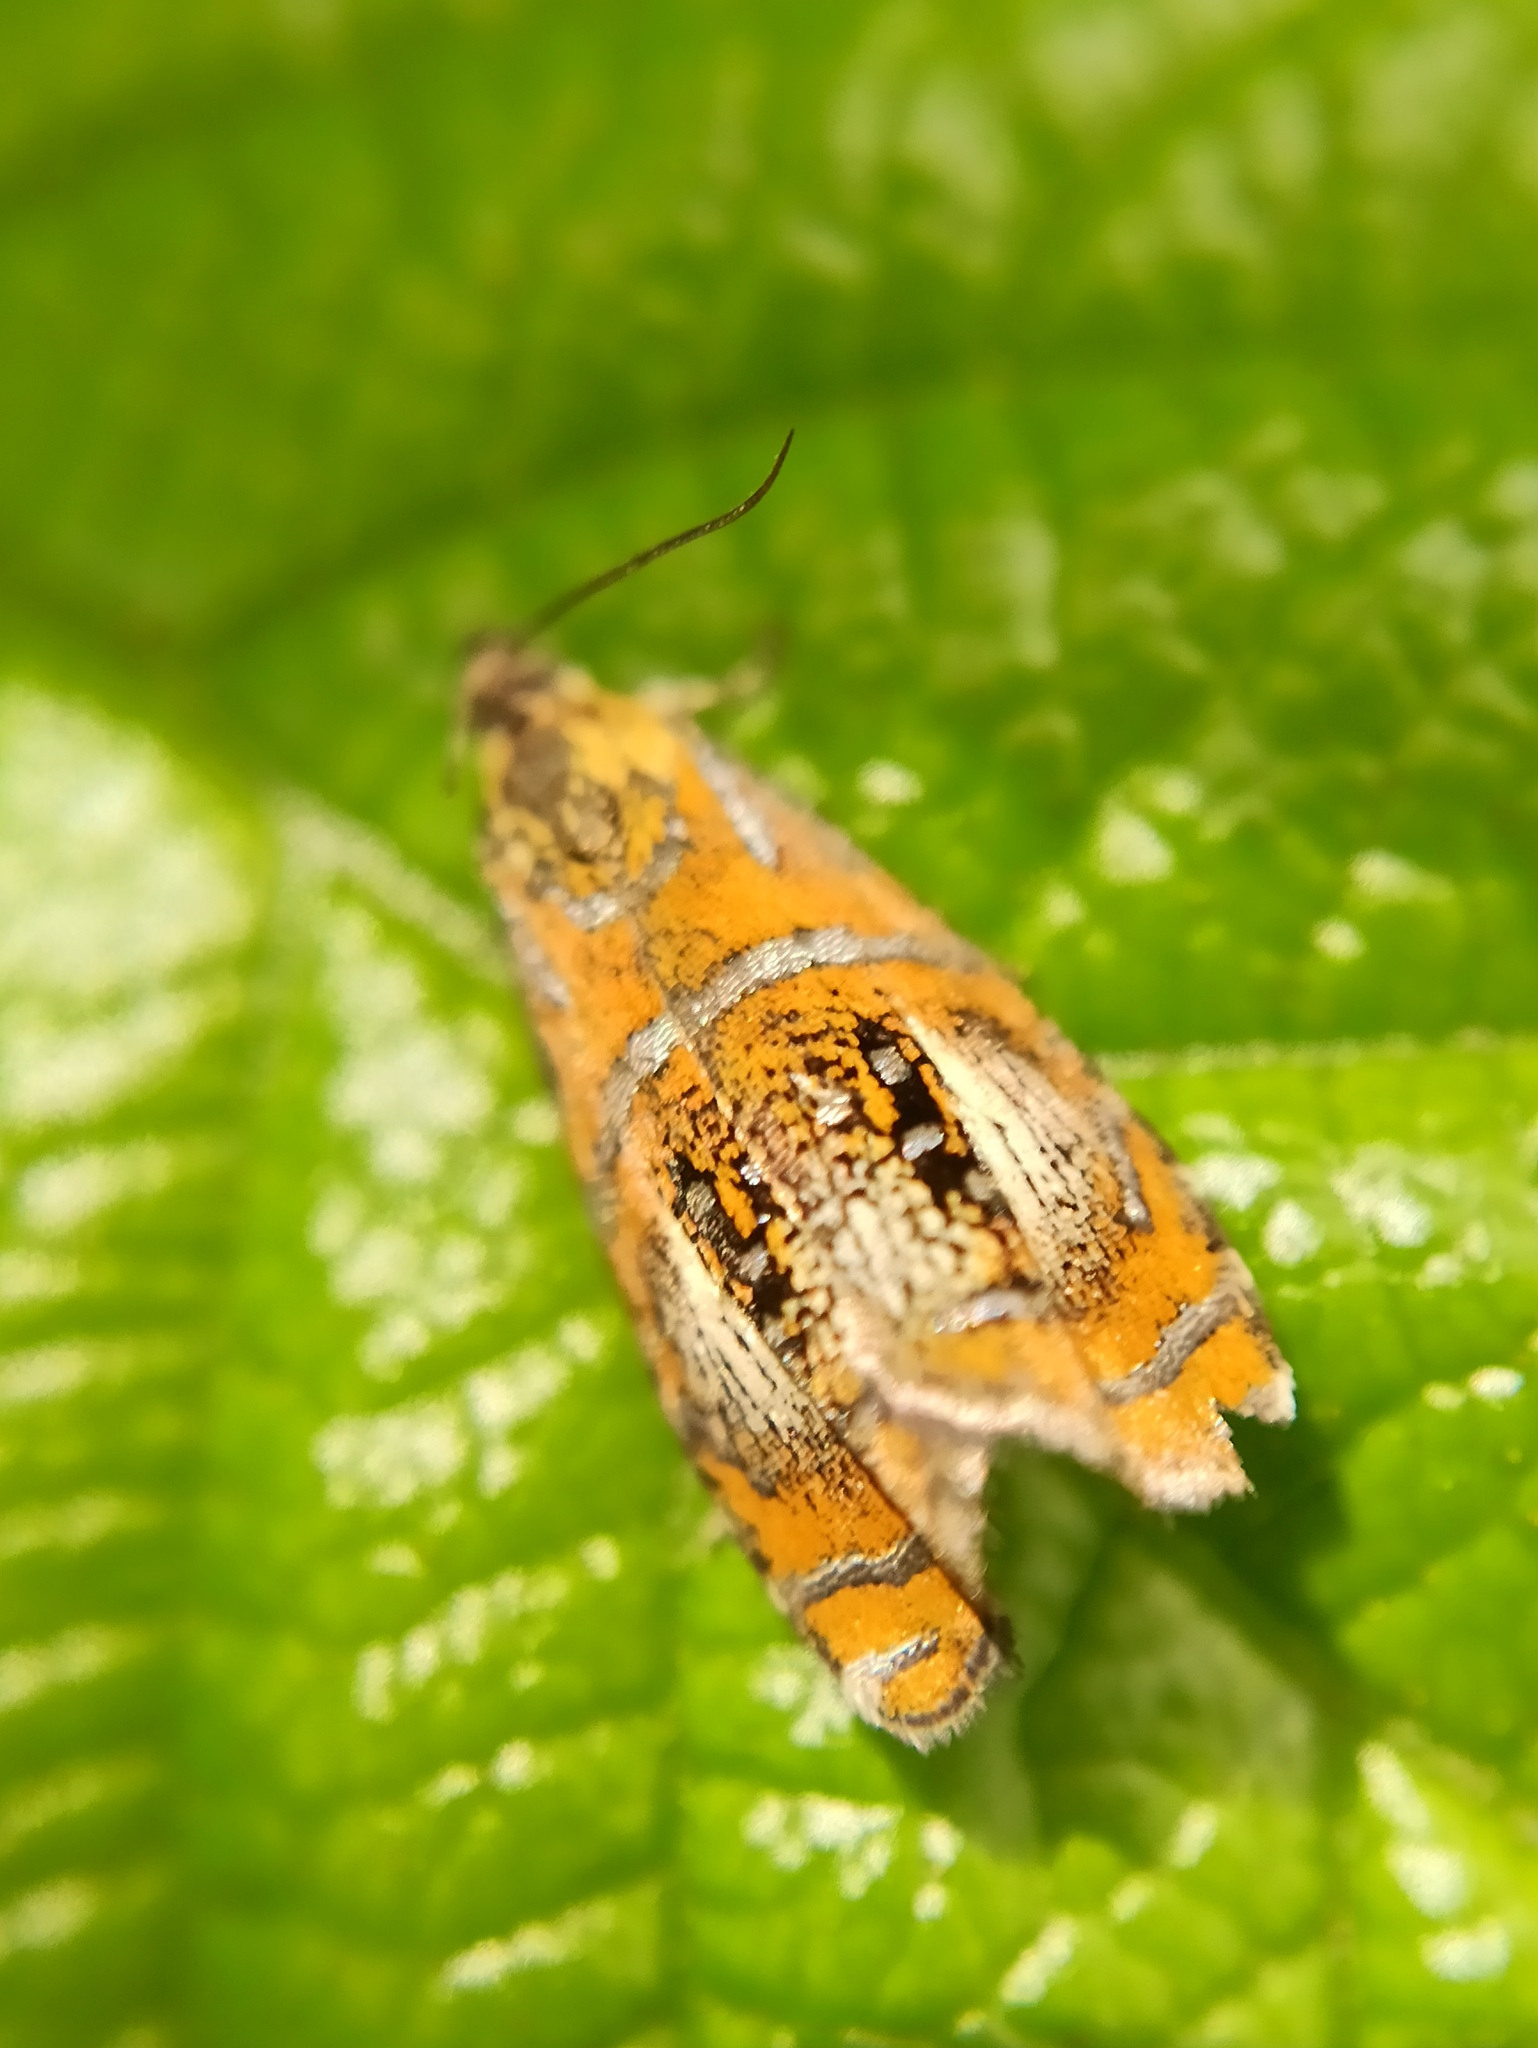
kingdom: Animalia
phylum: Arthropoda
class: Insecta
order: Lepidoptera
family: Tortricidae
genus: Olethreutes
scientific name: Olethreutes arcuella
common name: Arched marble
